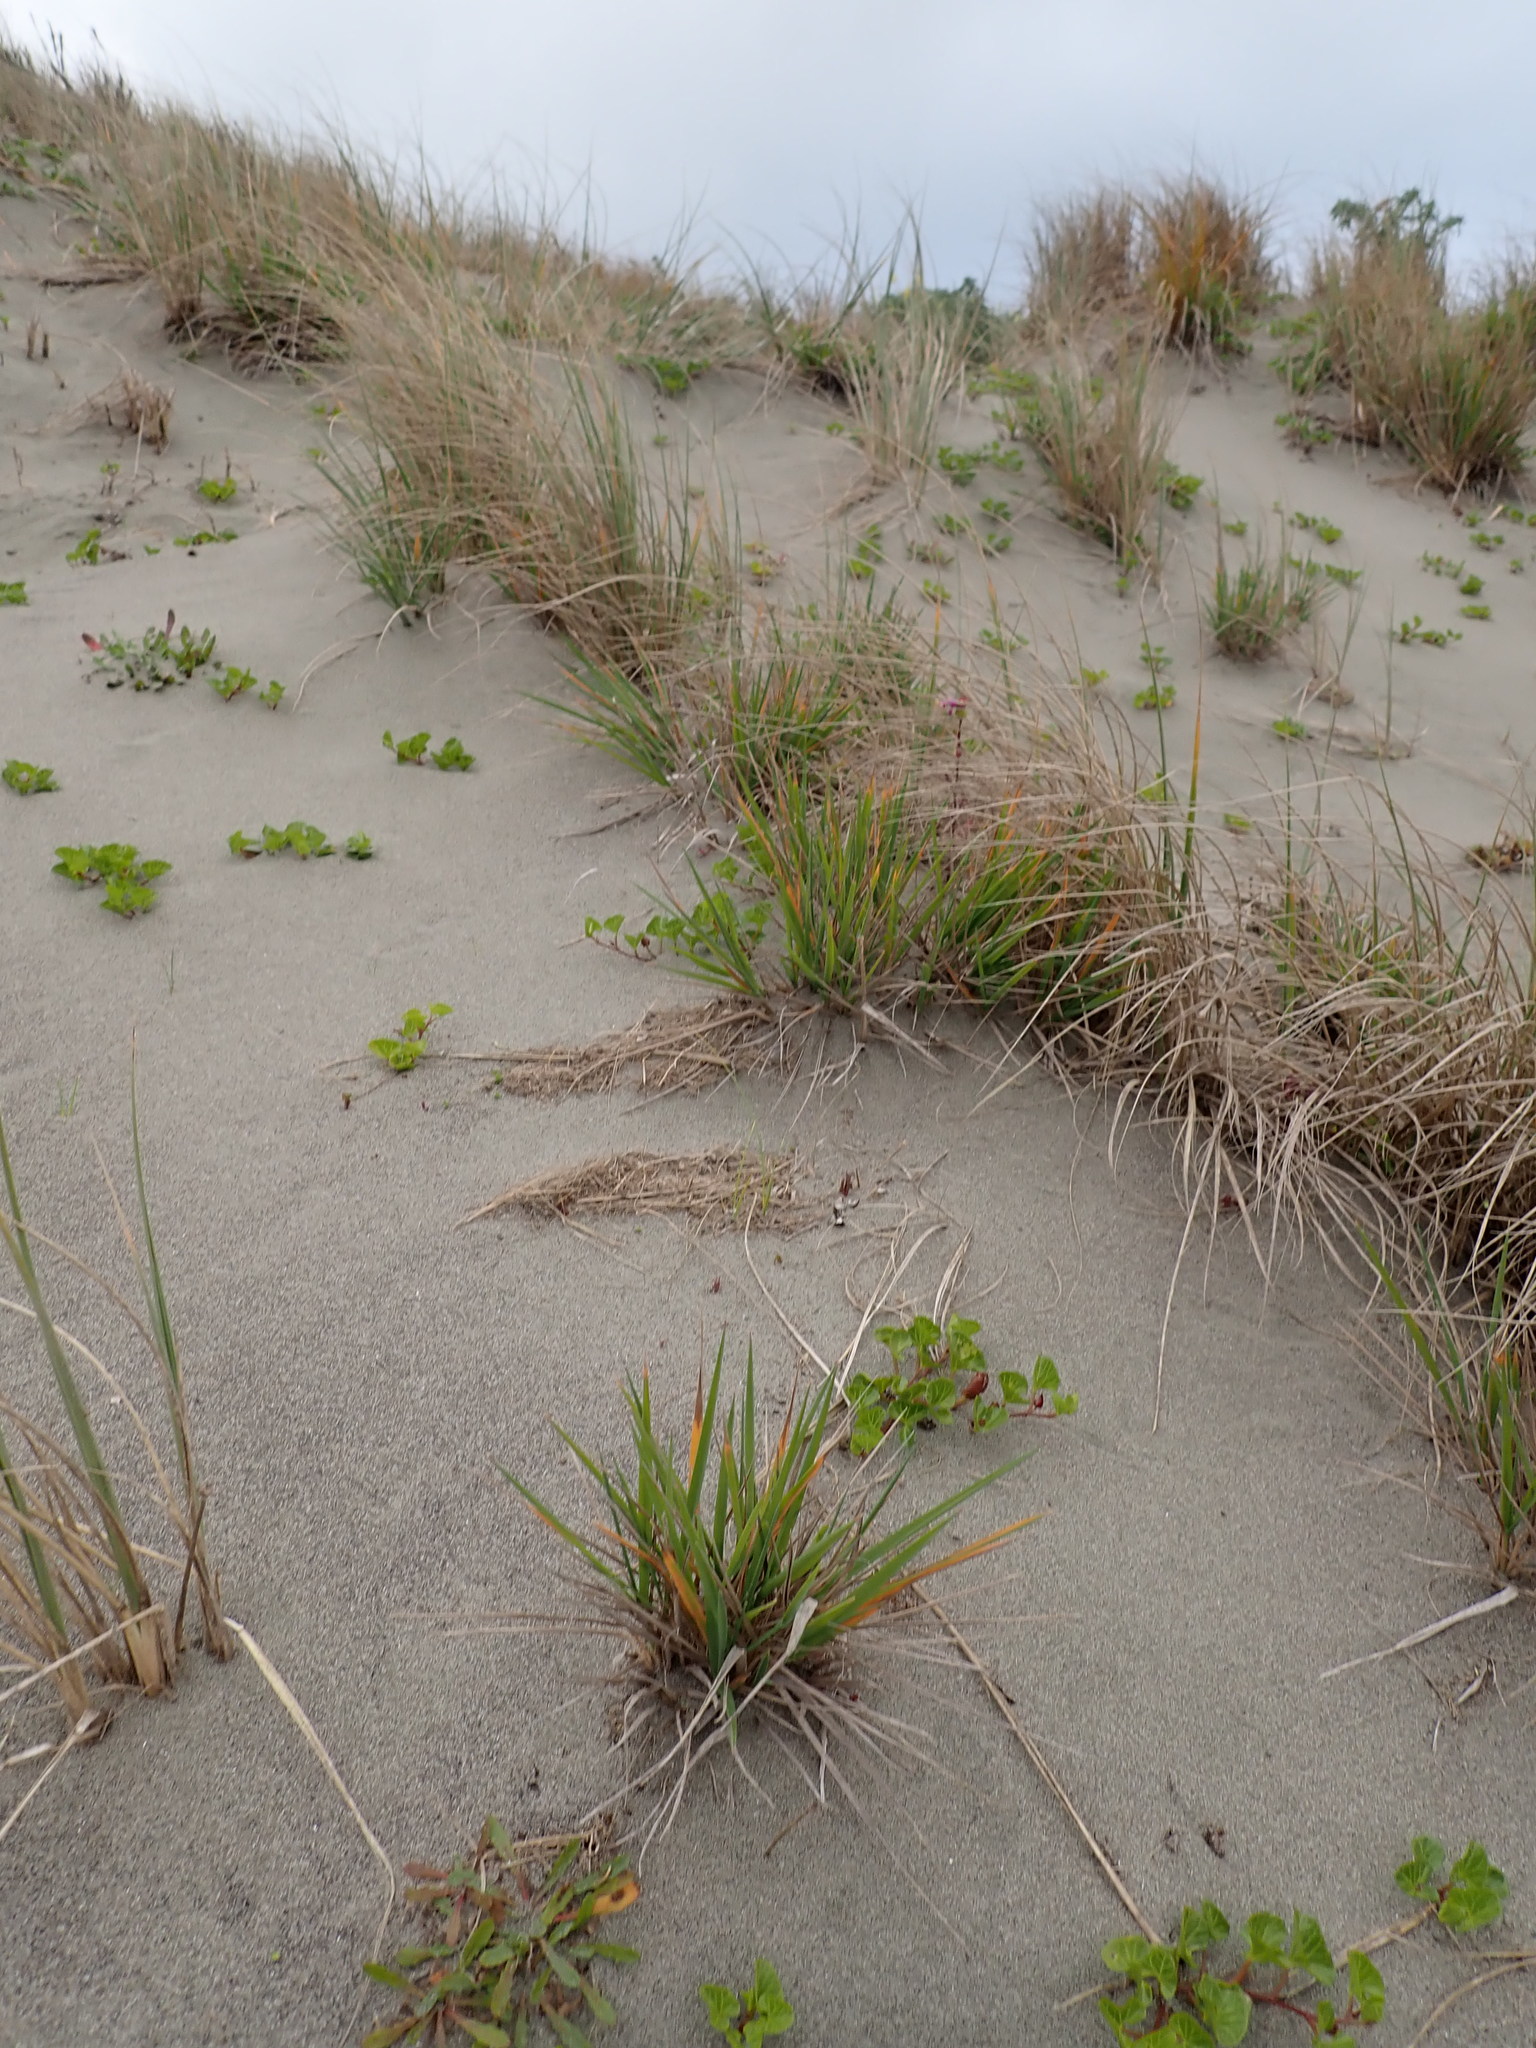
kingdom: Plantae
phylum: Tracheophyta
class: Liliopsida
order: Poales
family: Poaceae
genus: Lachnagrostis
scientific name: Lachnagrostis billardierei
